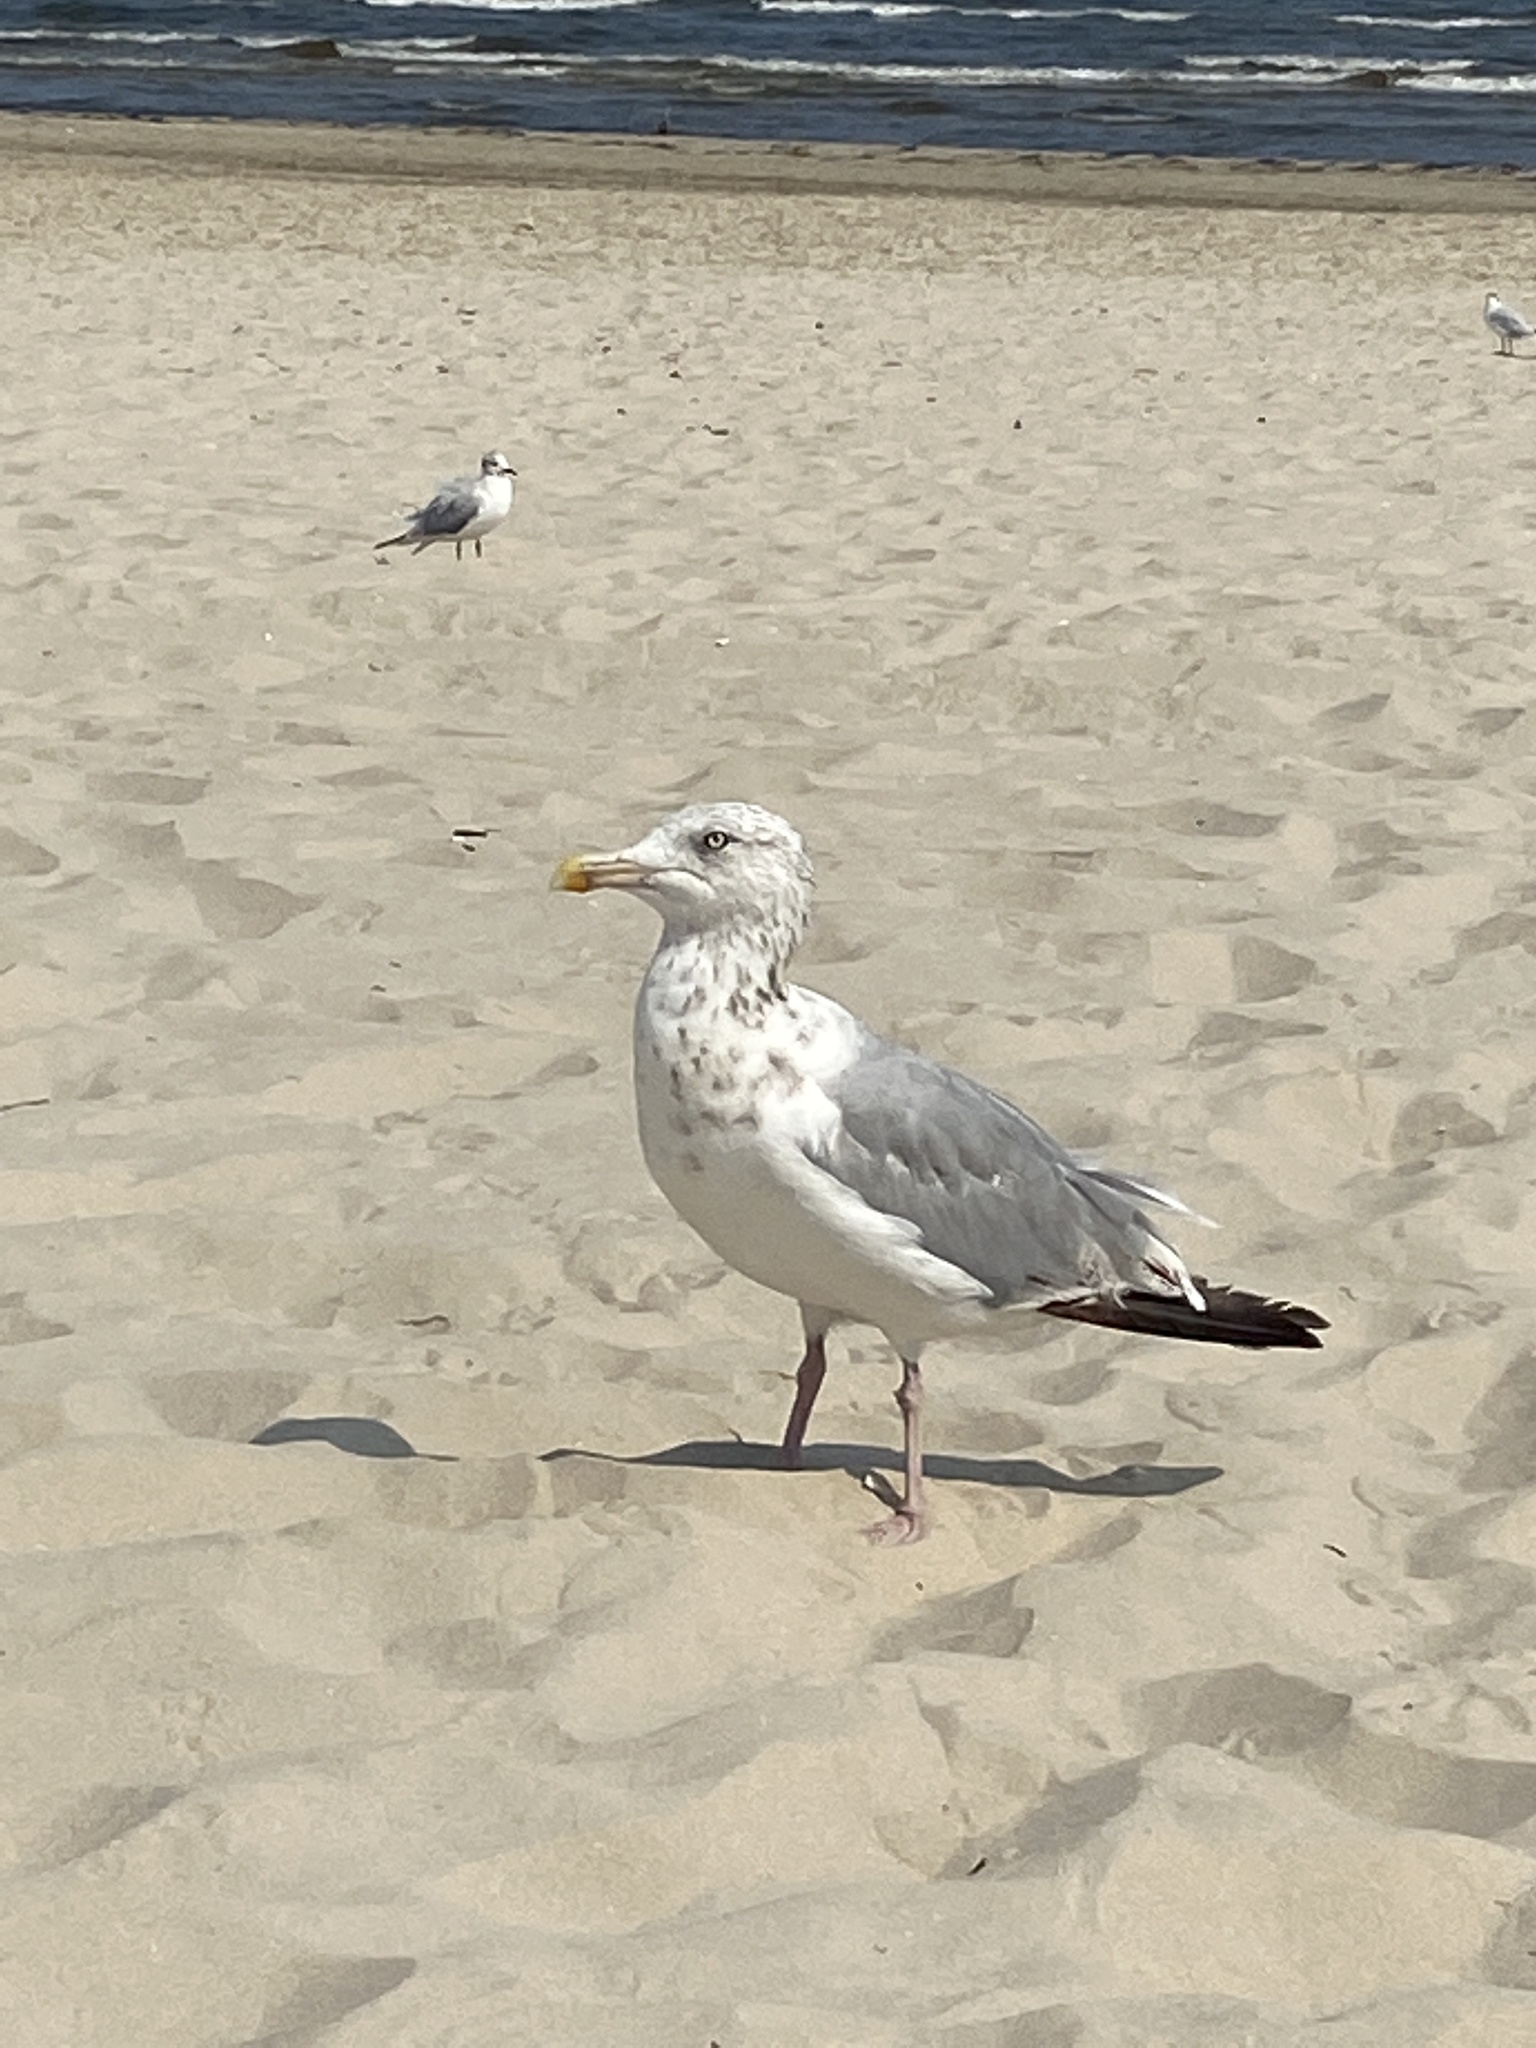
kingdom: Animalia
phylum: Chordata
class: Aves
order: Charadriiformes
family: Laridae
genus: Larus
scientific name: Larus argentatus
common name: Herring gull
